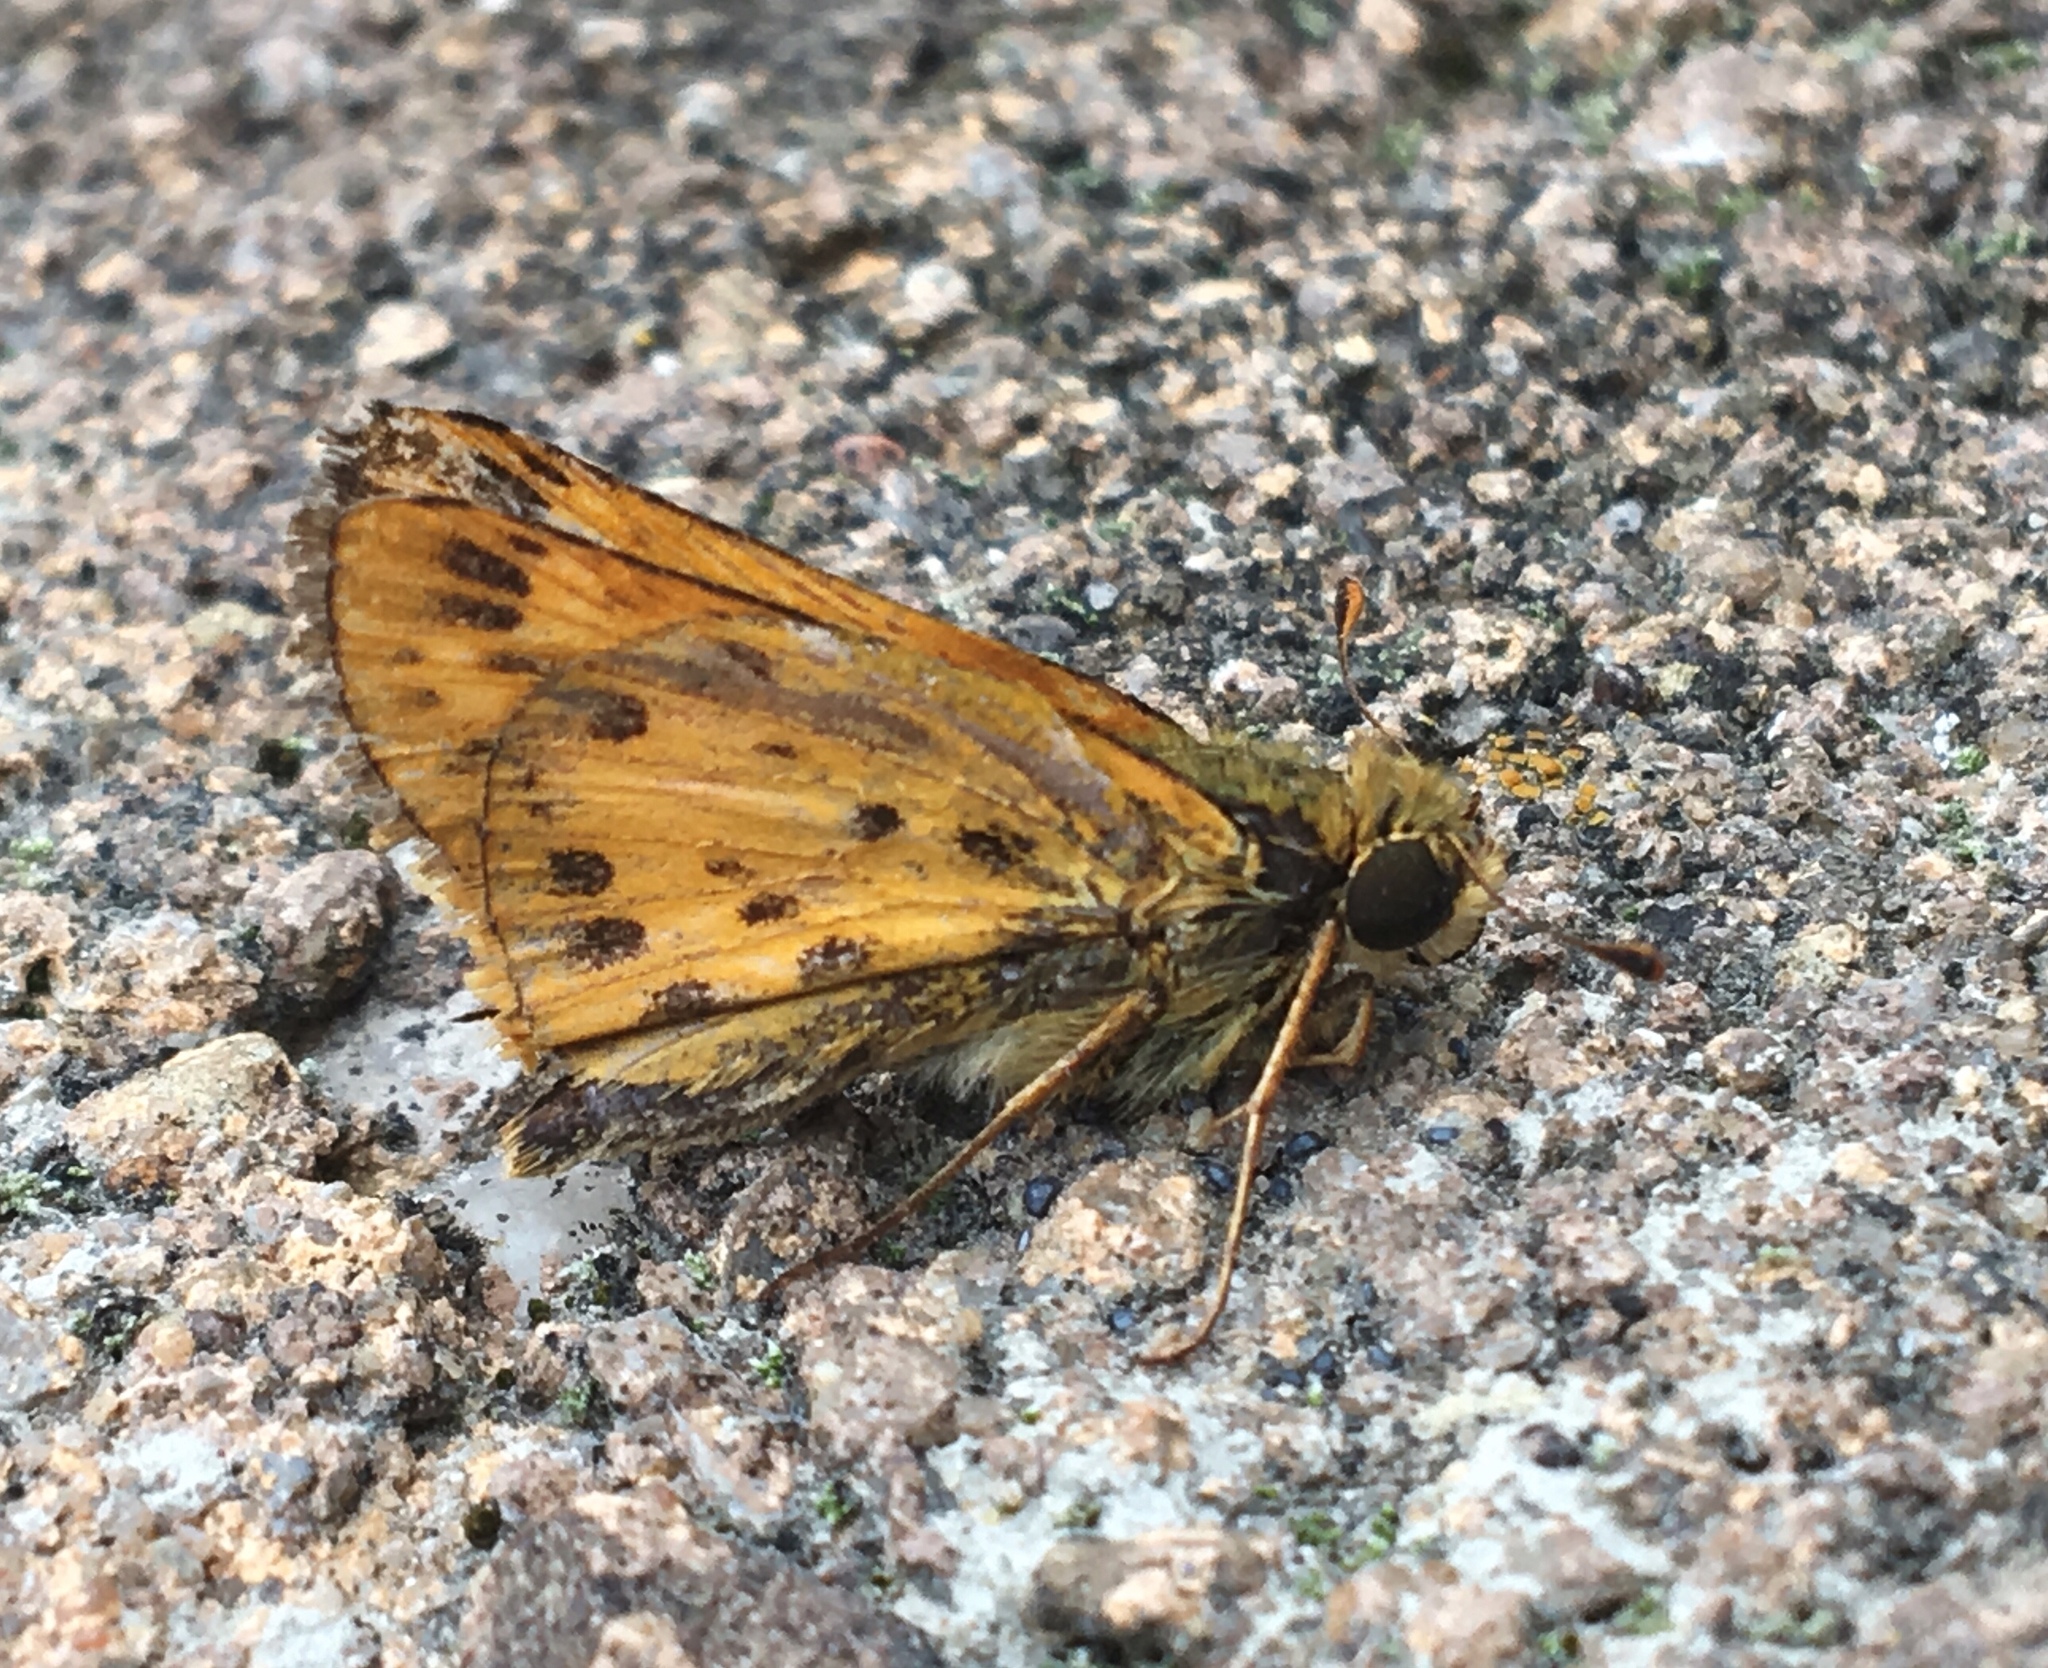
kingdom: Animalia
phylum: Arthropoda
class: Insecta
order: Lepidoptera
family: Hesperiidae
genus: Hylephila
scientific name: Hylephila phyleus
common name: Fiery skipper
